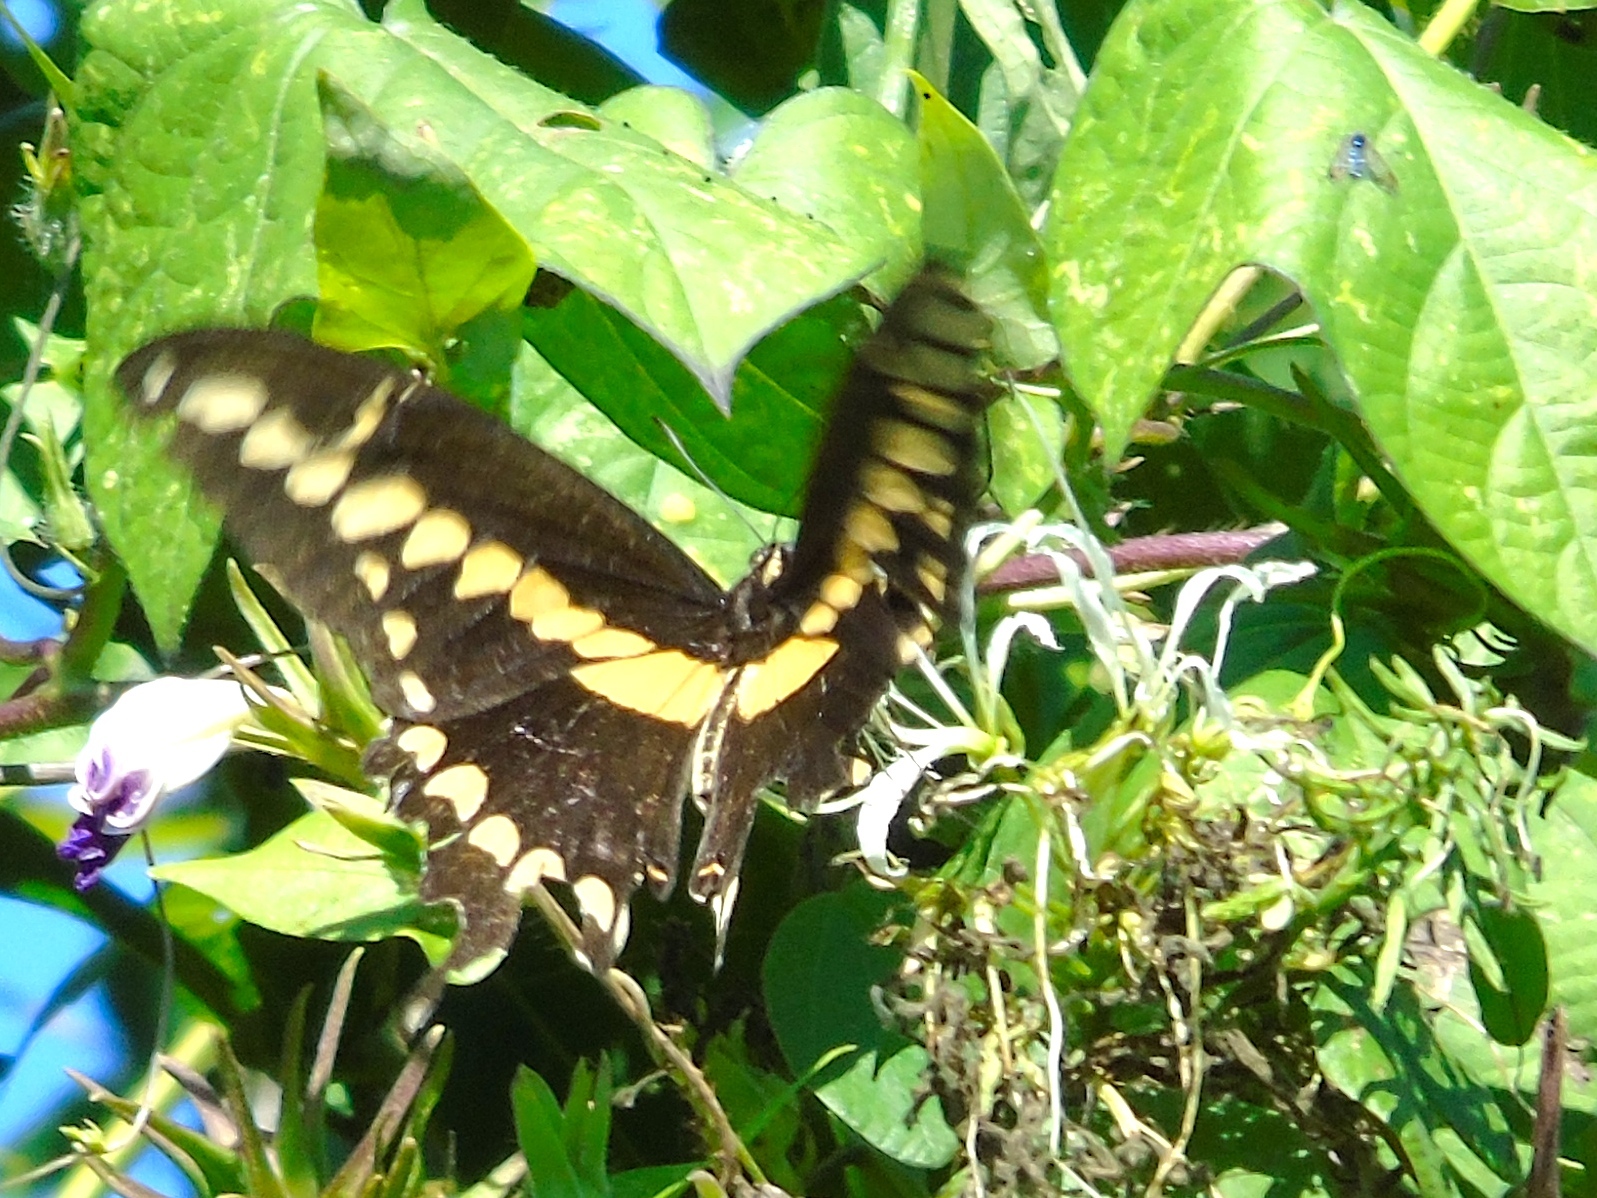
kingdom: Animalia
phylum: Arthropoda
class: Insecta
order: Lepidoptera
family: Papilionidae
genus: Papilio
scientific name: Papilio rumiko
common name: Western giant swallowtail
